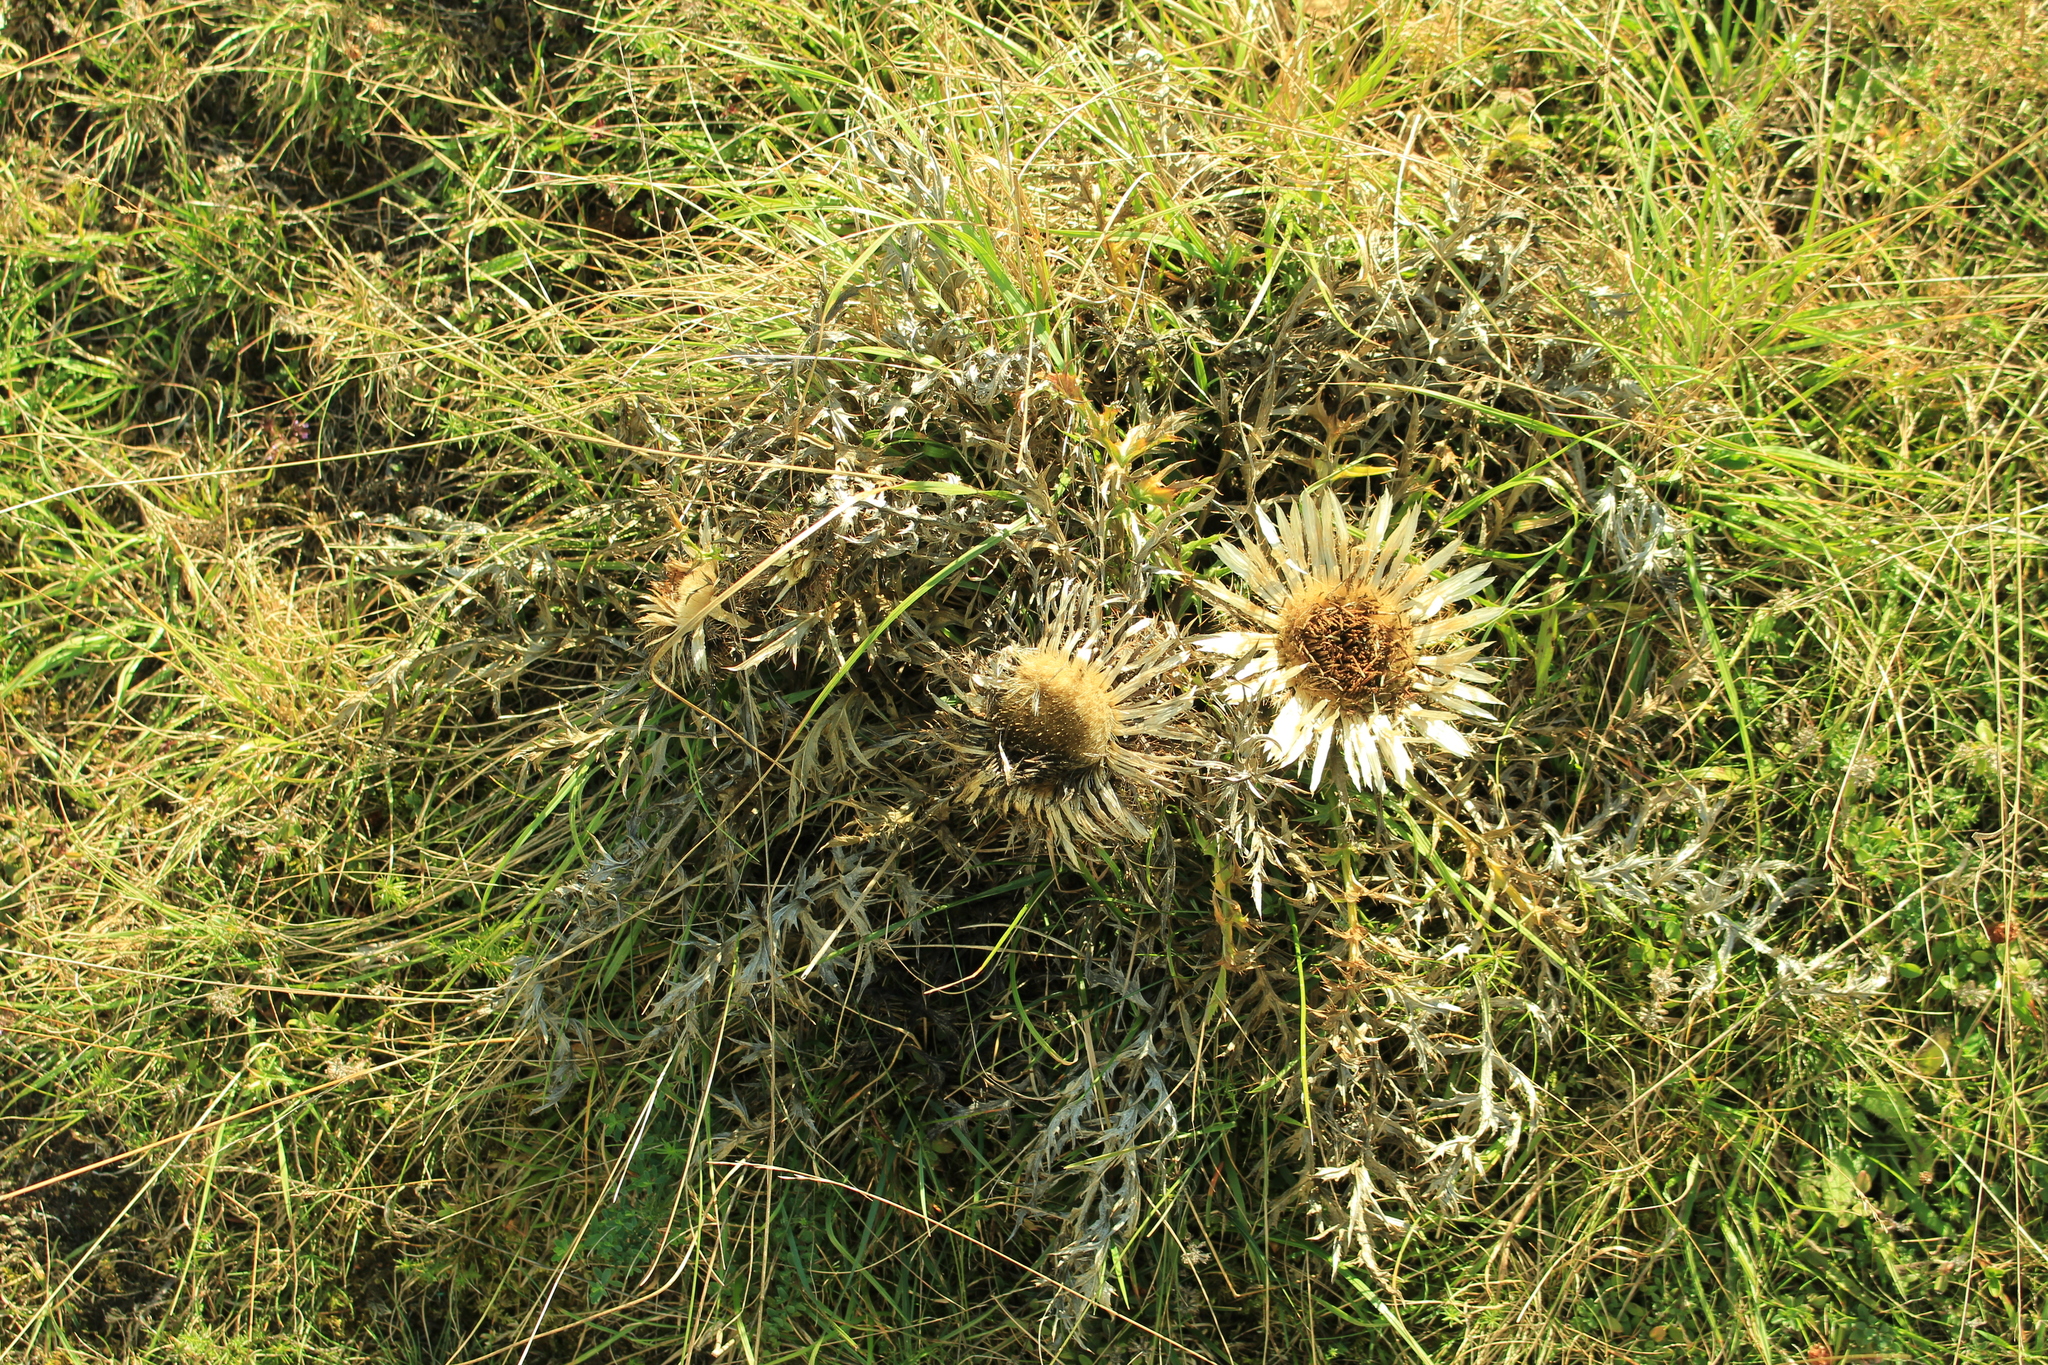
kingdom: Plantae
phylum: Tracheophyta
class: Magnoliopsida
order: Asterales
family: Asteraceae
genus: Carlina
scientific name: Carlina acaulis
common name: Stemless carline thistle
